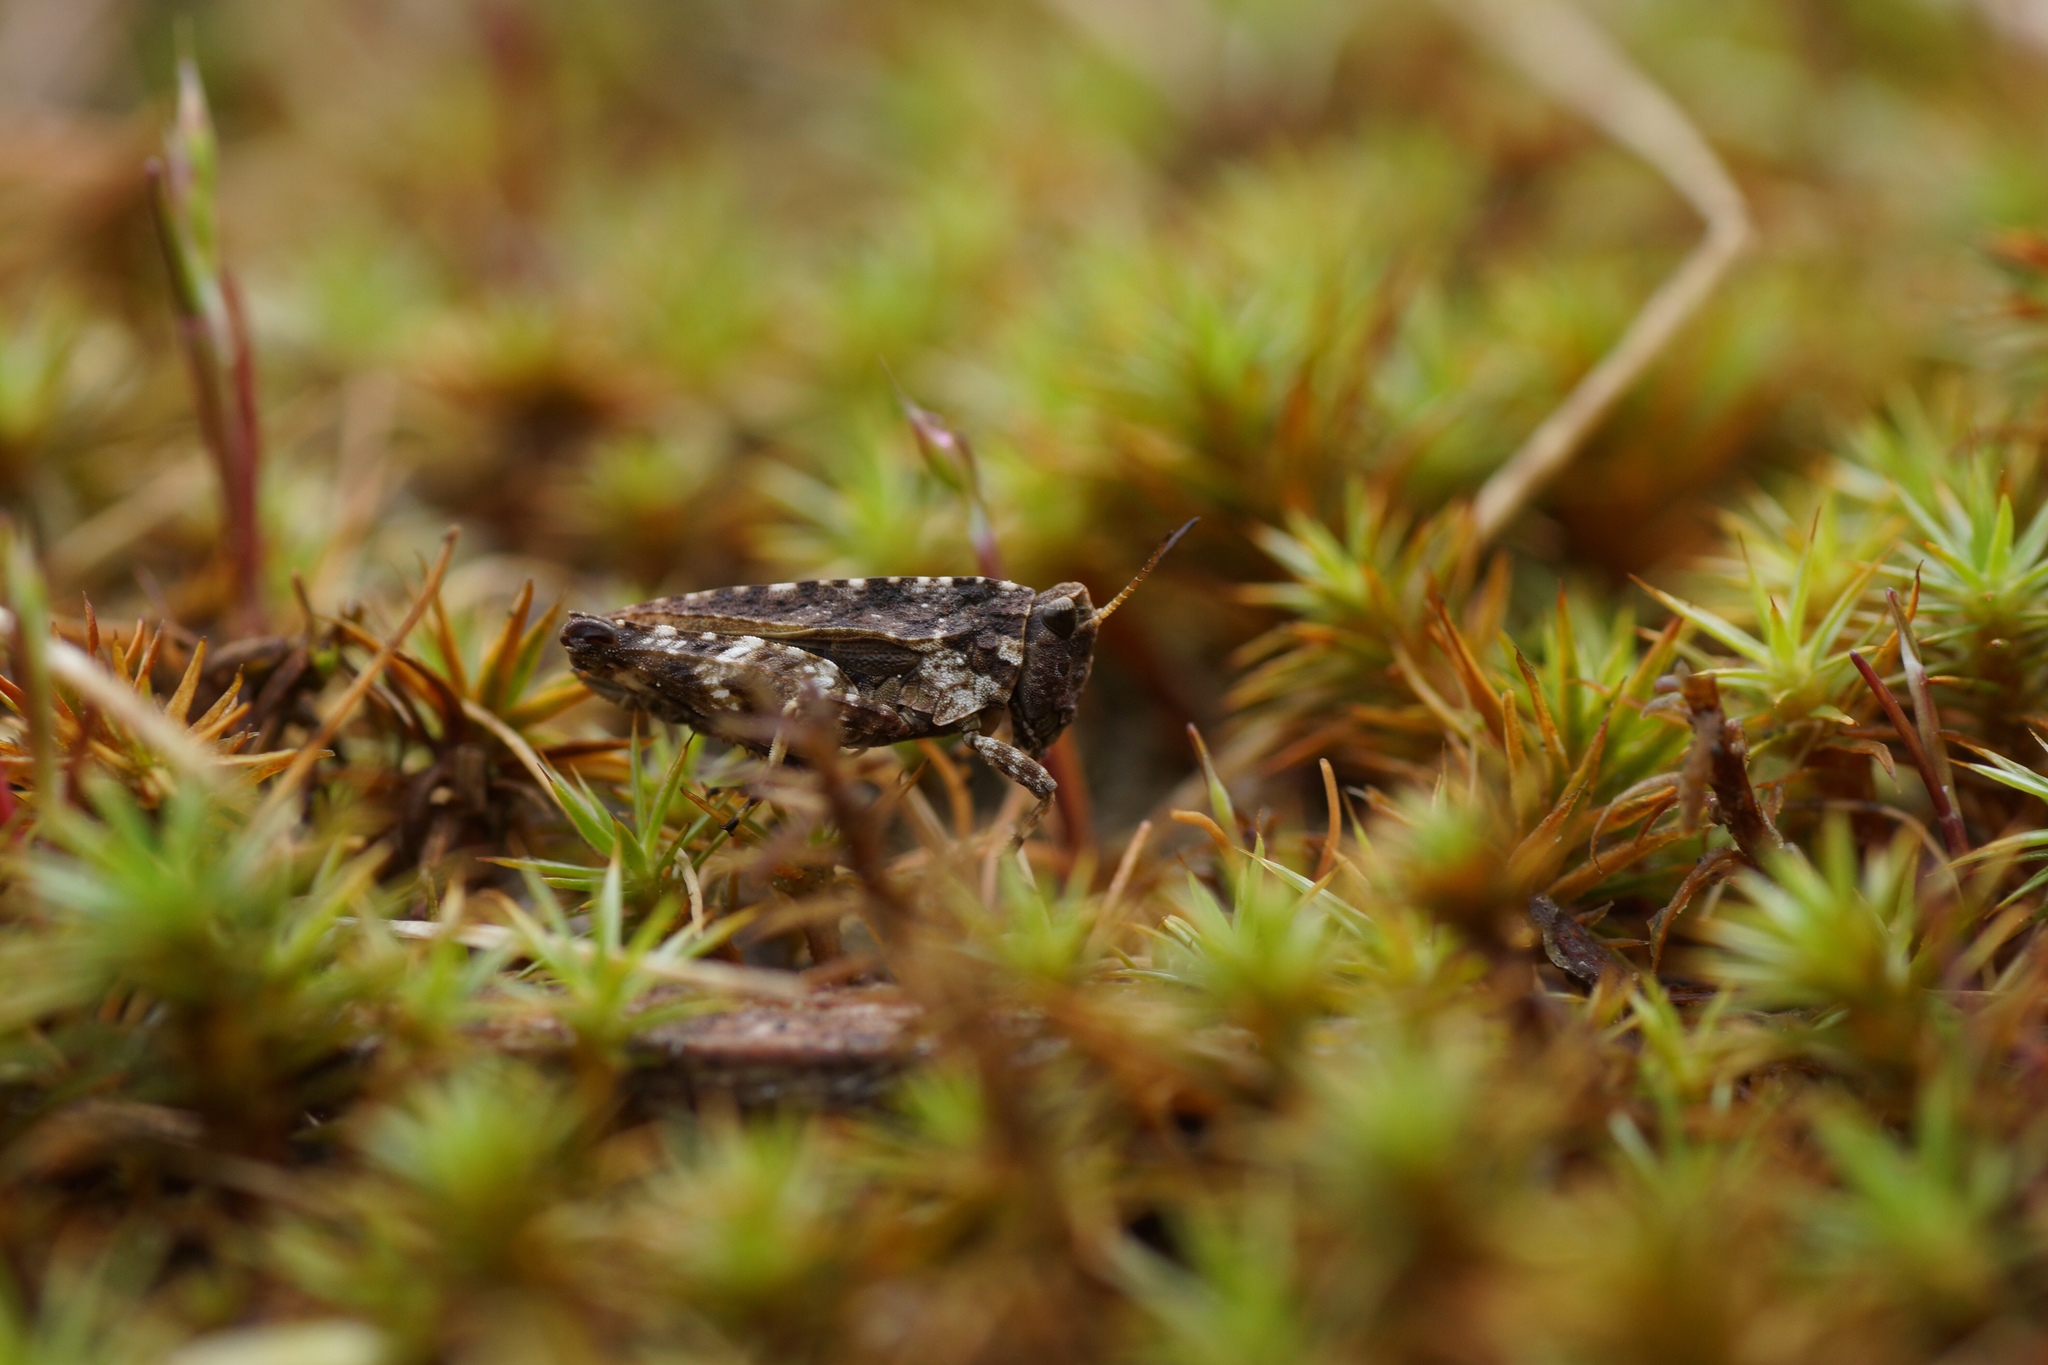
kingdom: Animalia
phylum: Arthropoda
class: Insecta
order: Orthoptera
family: Tetrigidae
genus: Tetrix
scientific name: Tetrix undulata
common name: Common groundhopper
